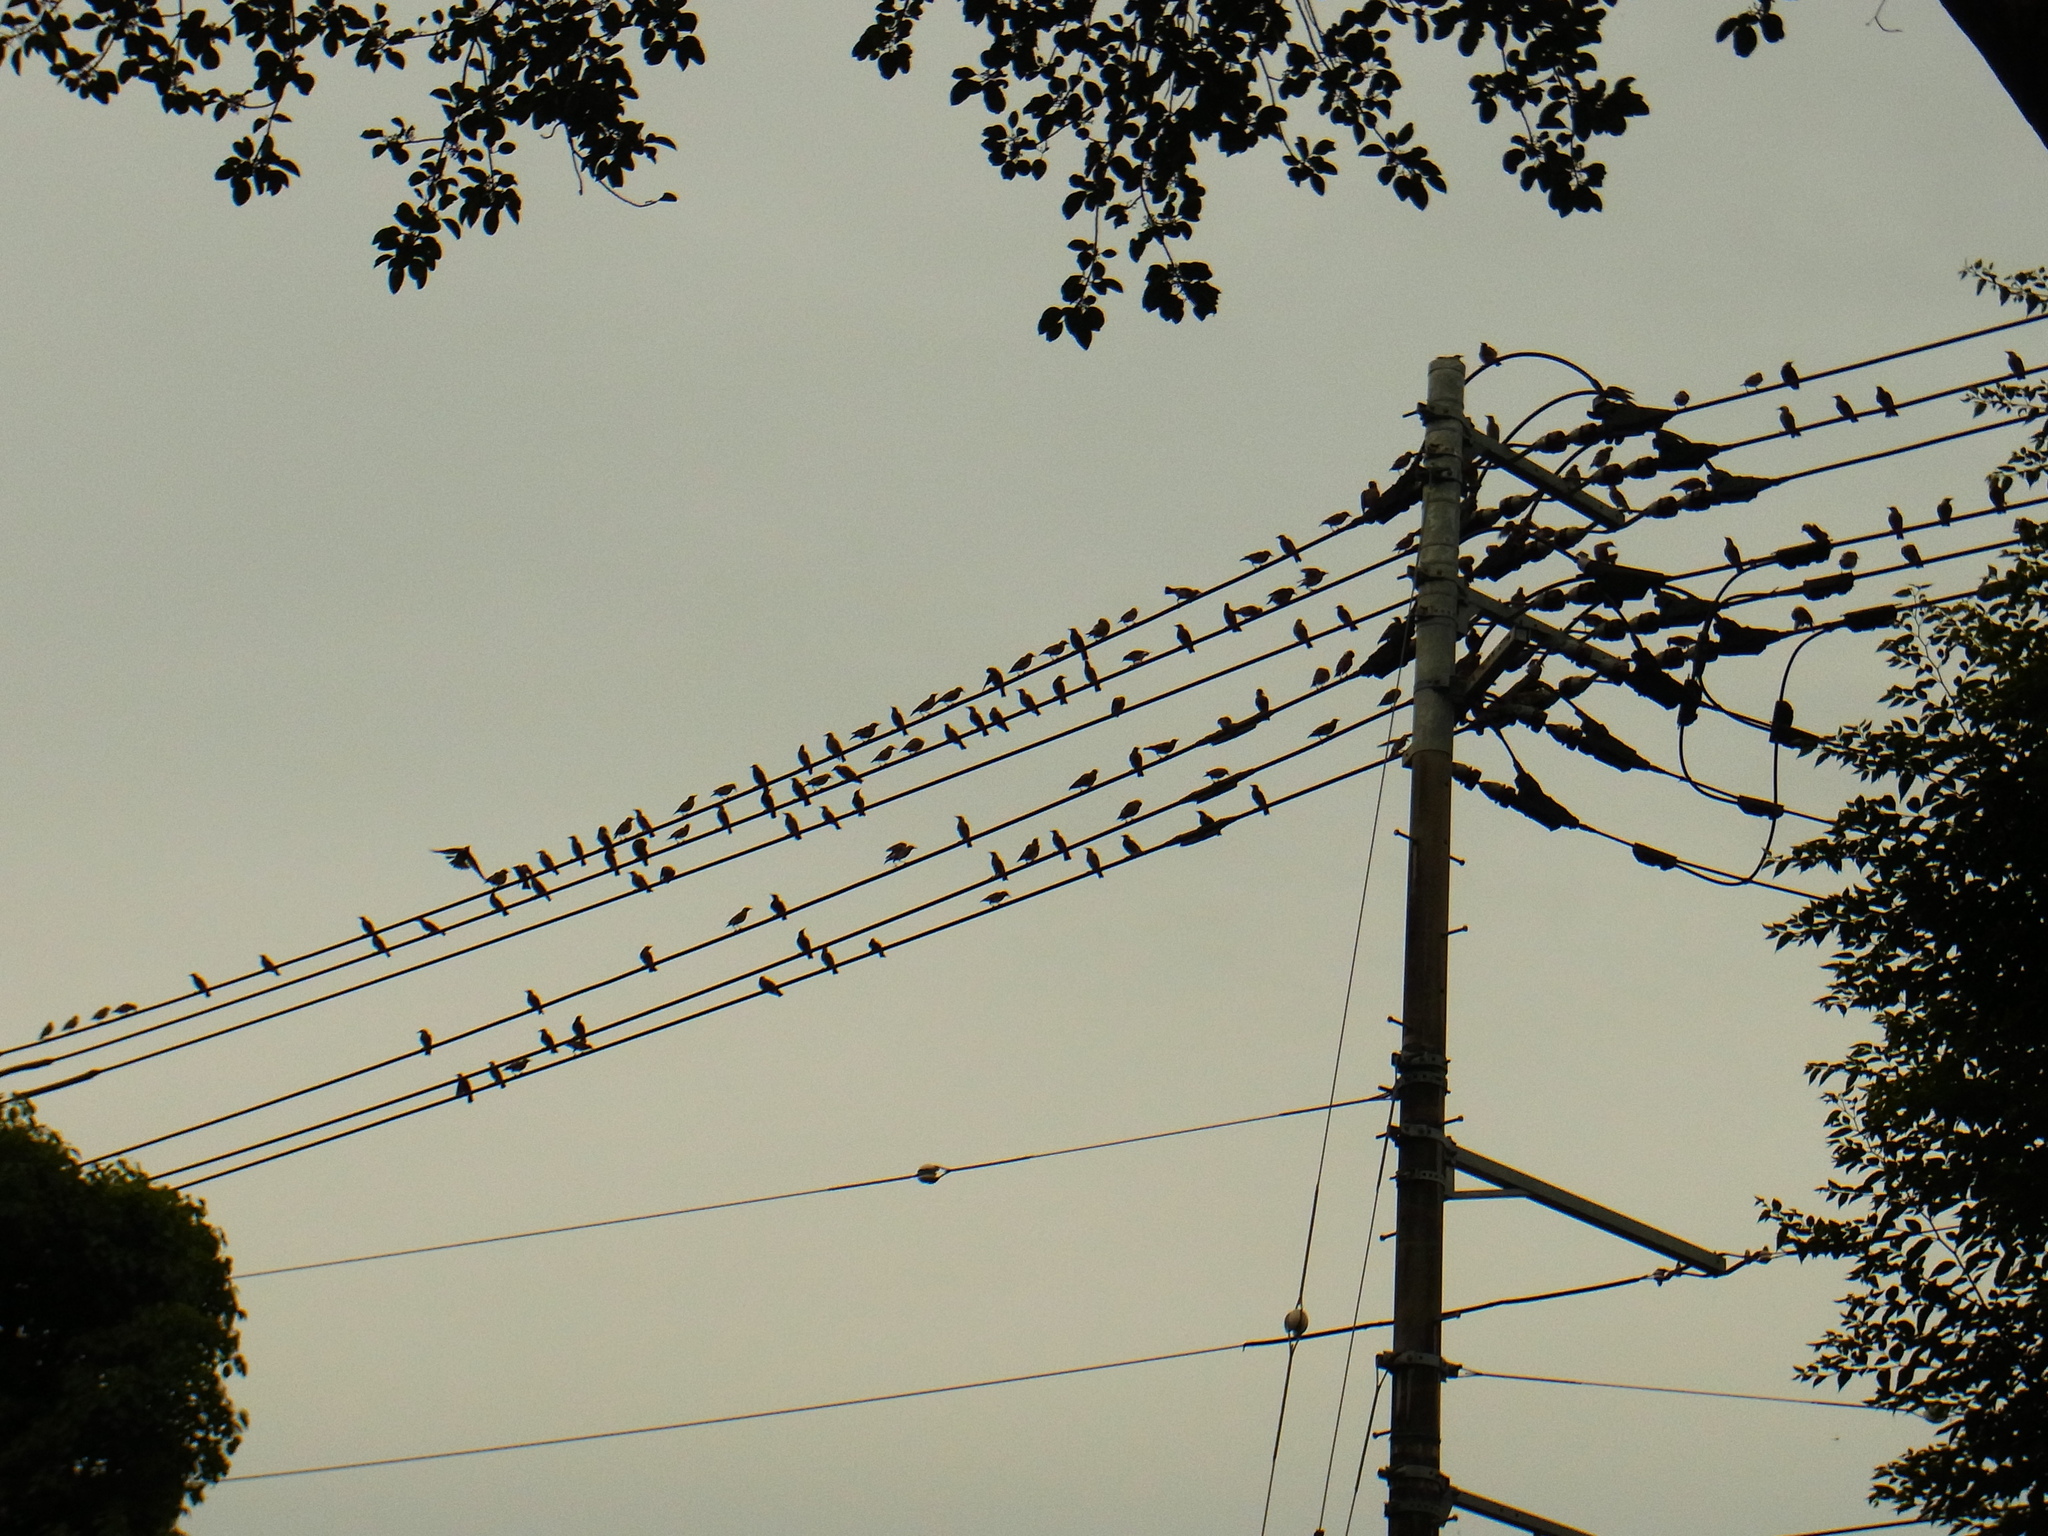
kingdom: Animalia
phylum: Chordata
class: Aves
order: Passeriformes
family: Sturnidae
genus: Spodiopsar
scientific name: Spodiopsar cineraceus
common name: White-cheeked starling
